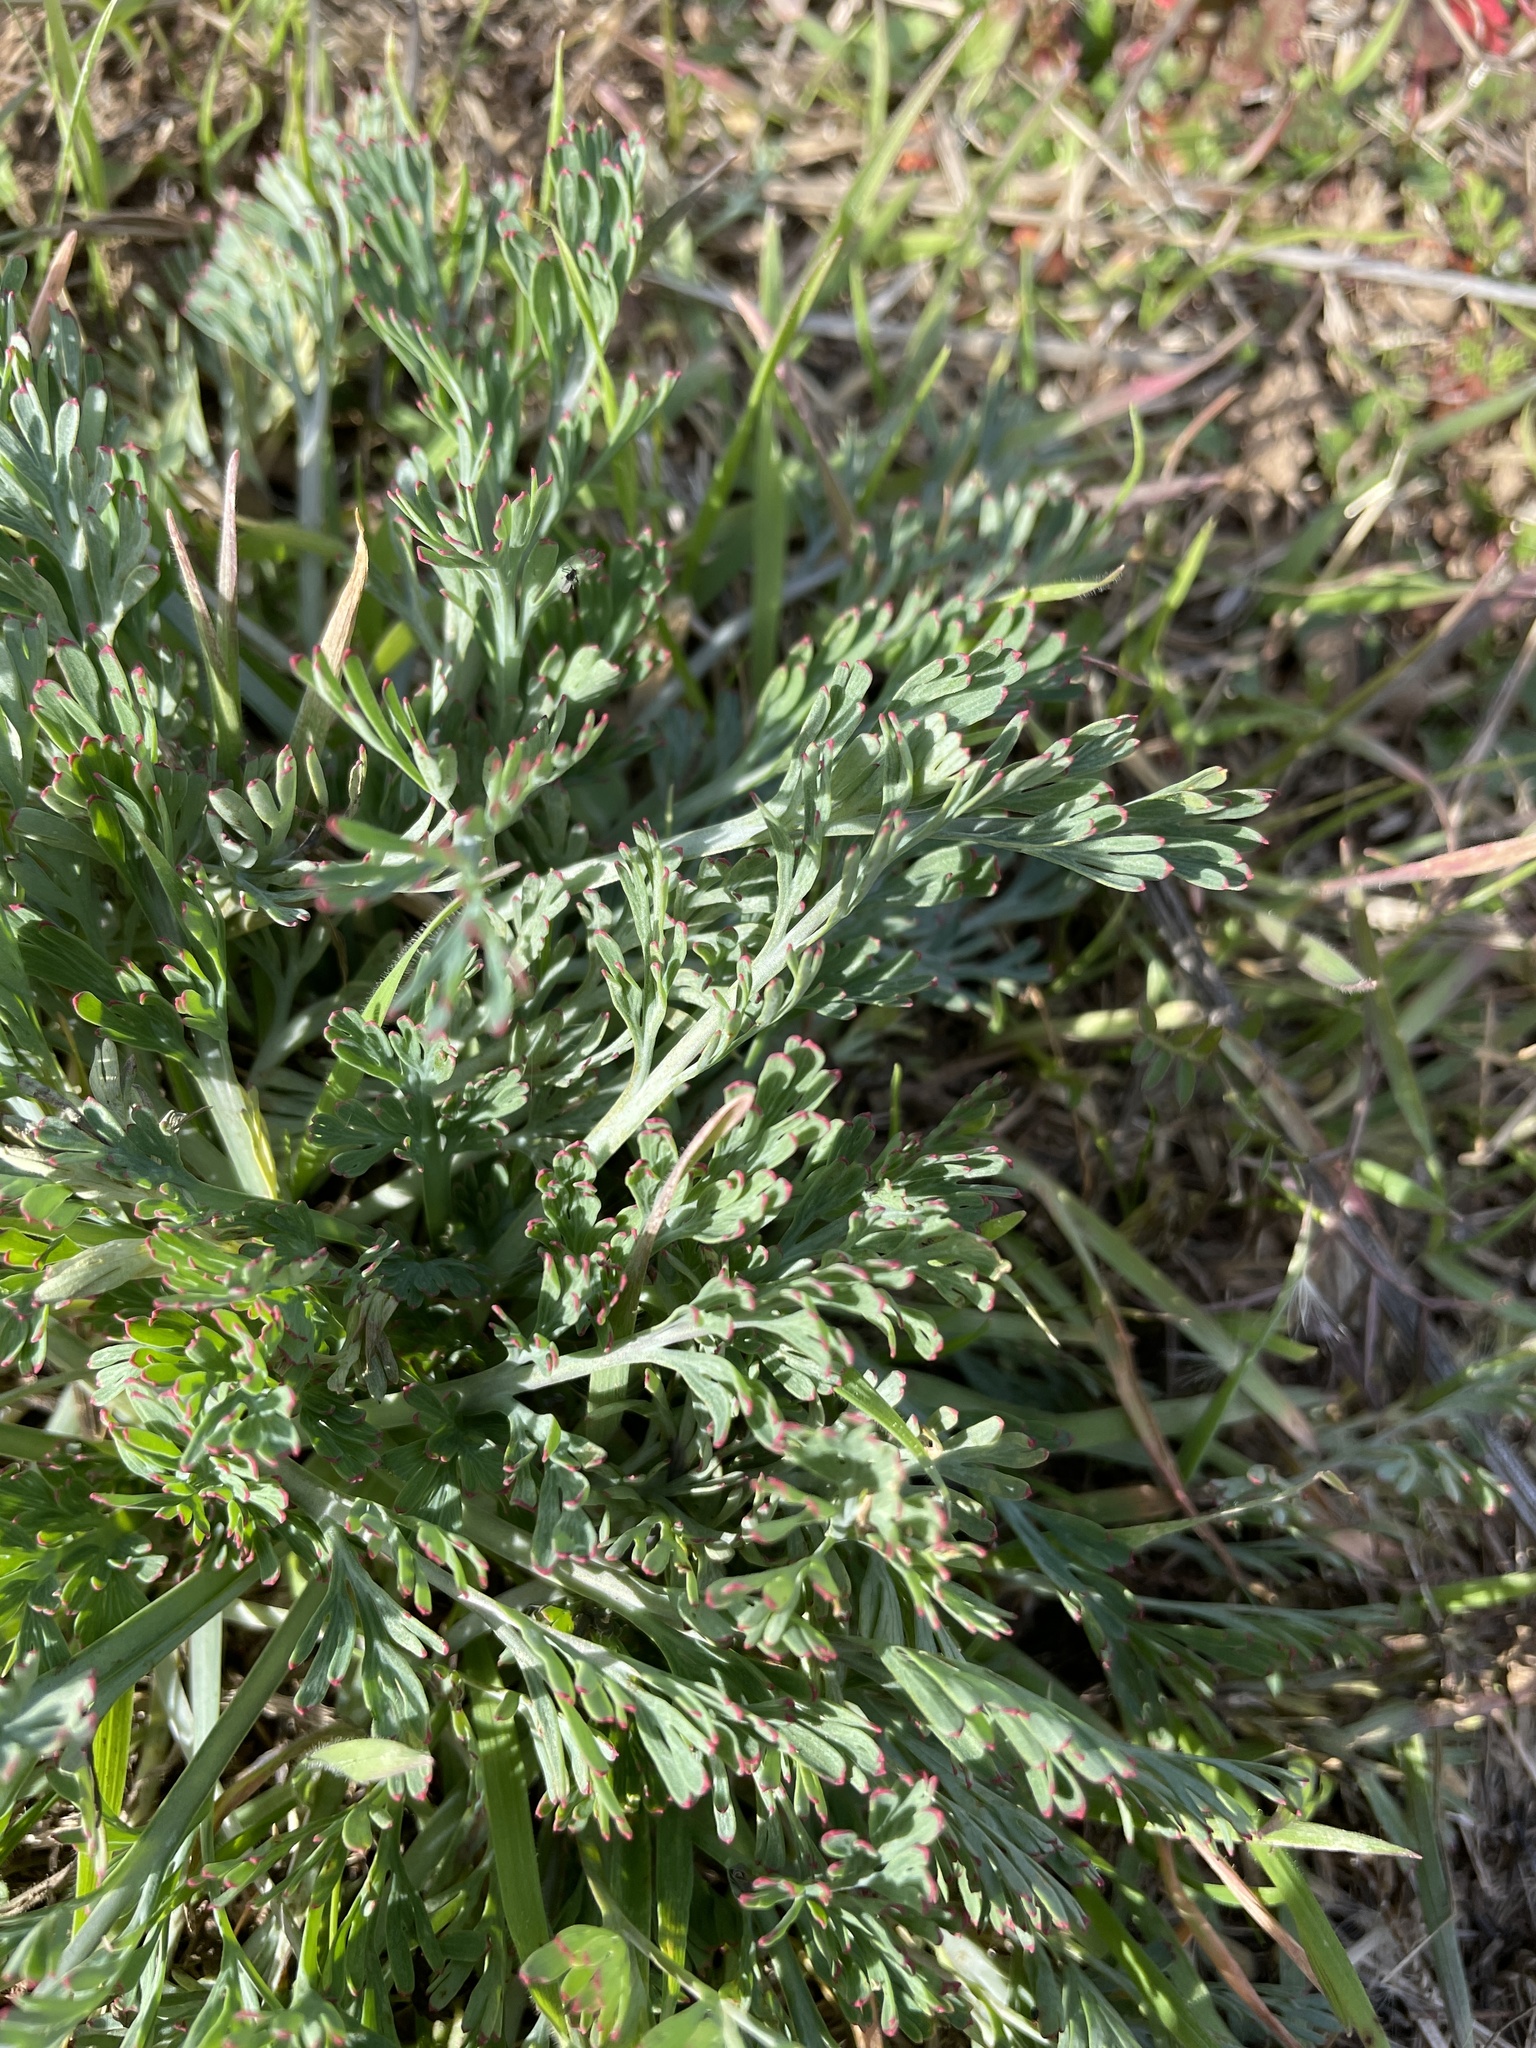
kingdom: Plantae
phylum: Tracheophyta
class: Magnoliopsida
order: Ranunculales
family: Papaveraceae
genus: Eschscholzia
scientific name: Eschscholzia californica
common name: California poppy
